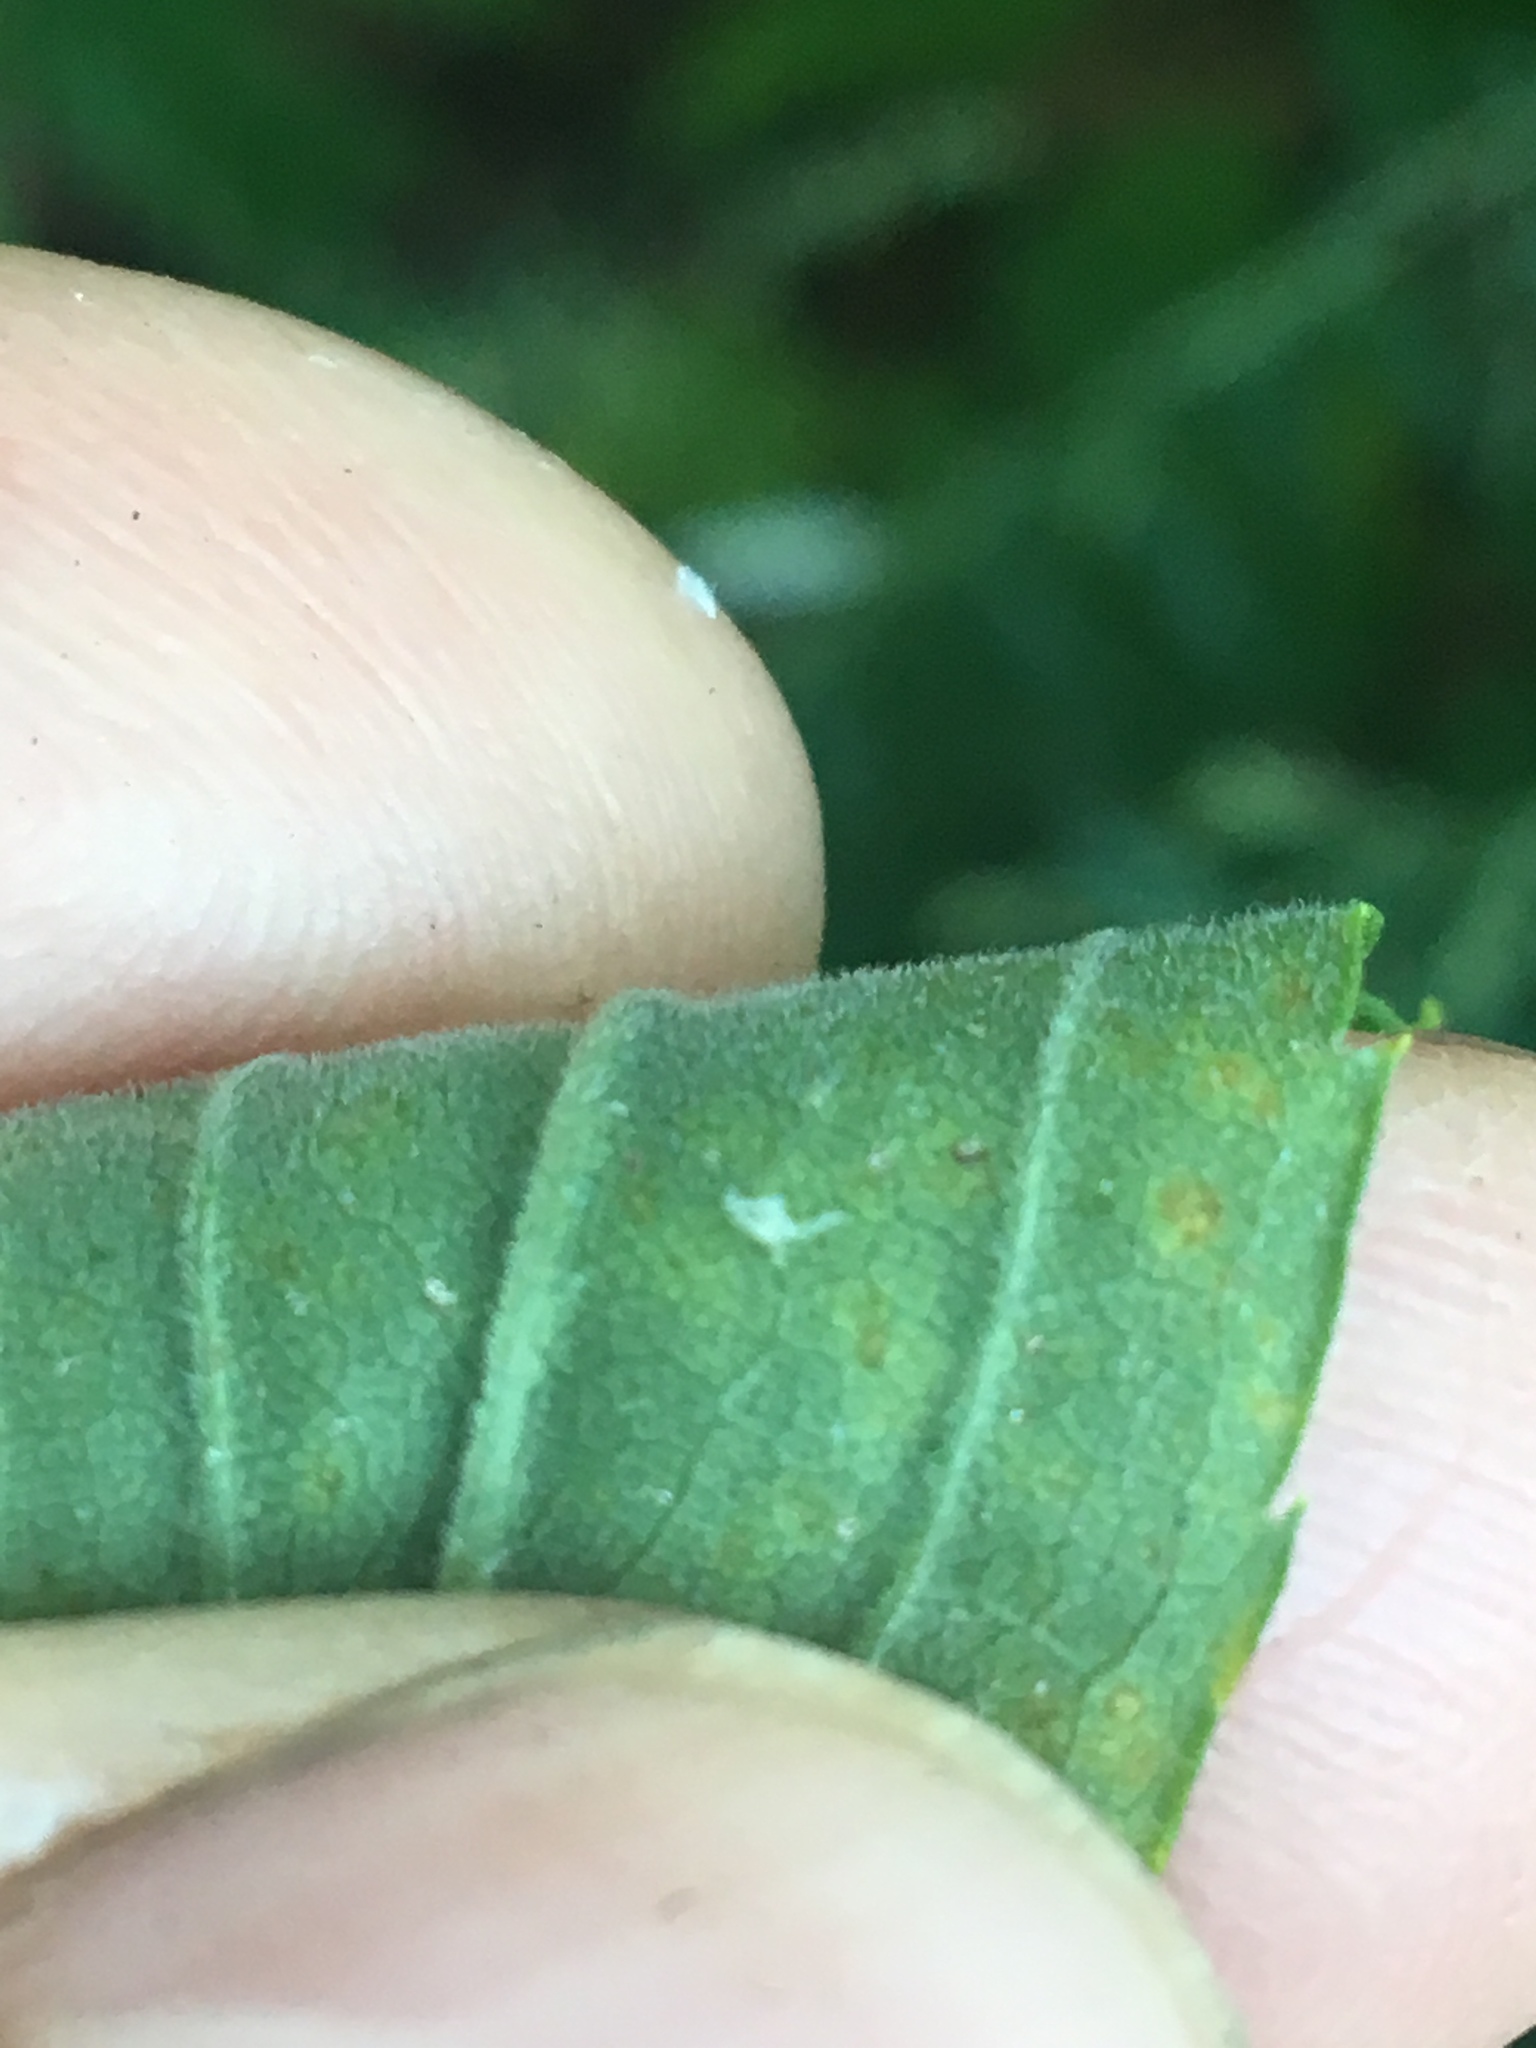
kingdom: Plantae
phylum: Tracheophyta
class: Magnoliopsida
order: Asterales
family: Asteraceae
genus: Solidago
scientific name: Solidago altissima
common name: Late goldenrod
